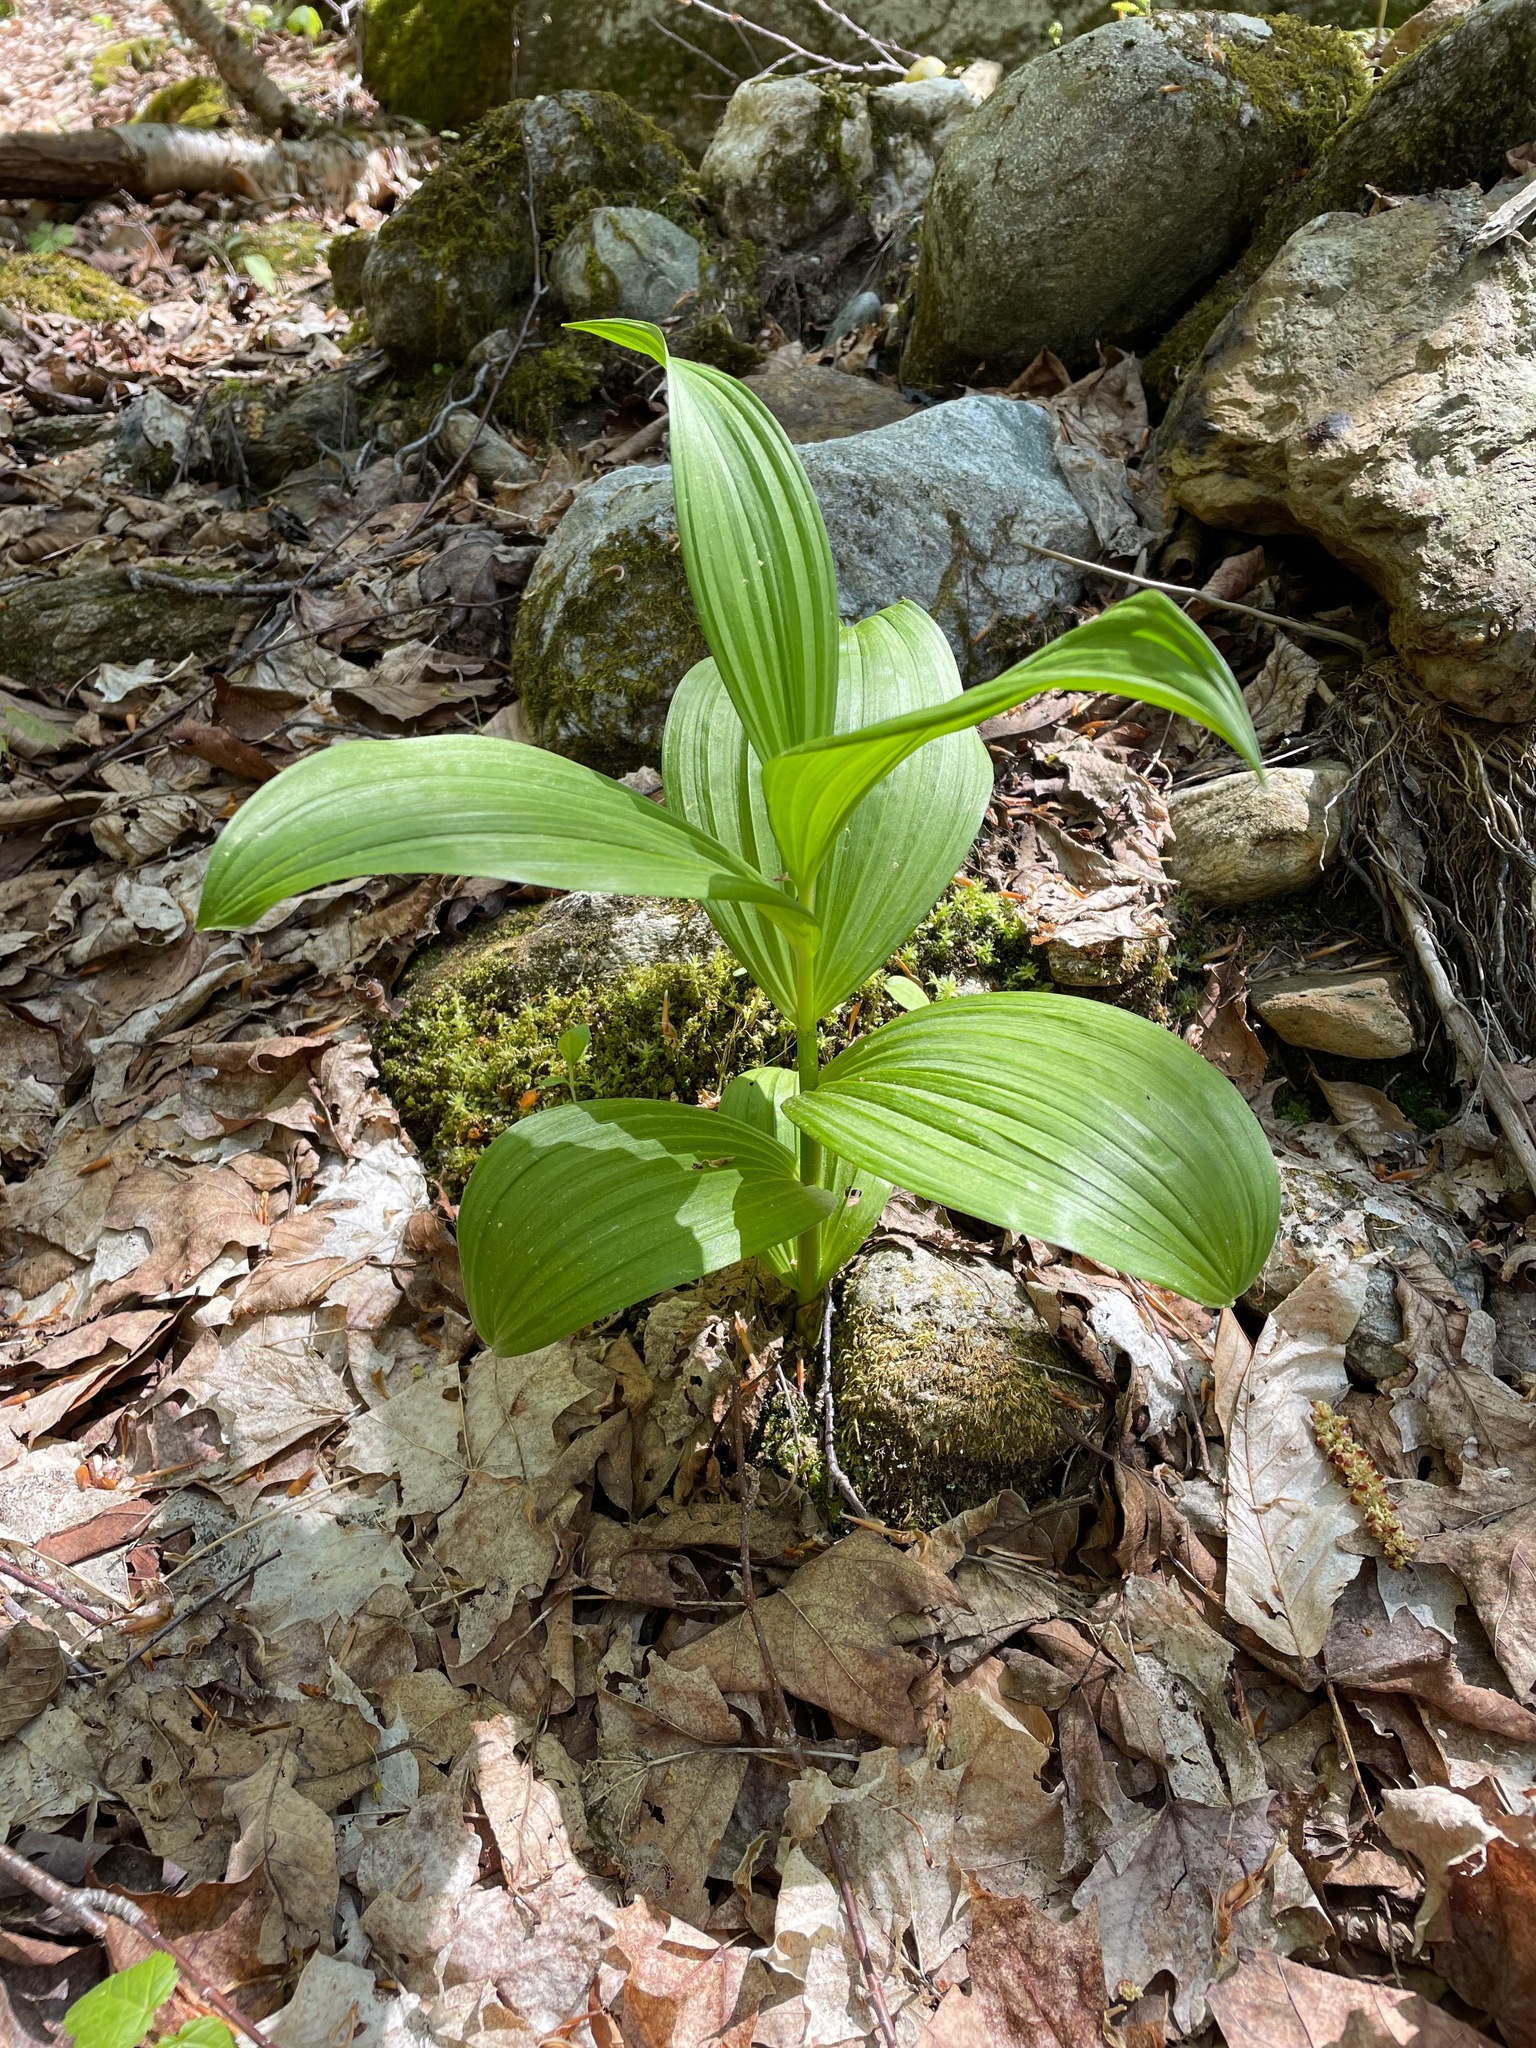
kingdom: Plantae
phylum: Tracheophyta
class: Liliopsida
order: Liliales
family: Melanthiaceae
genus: Veratrum
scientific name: Veratrum viride
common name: American false hellebore
